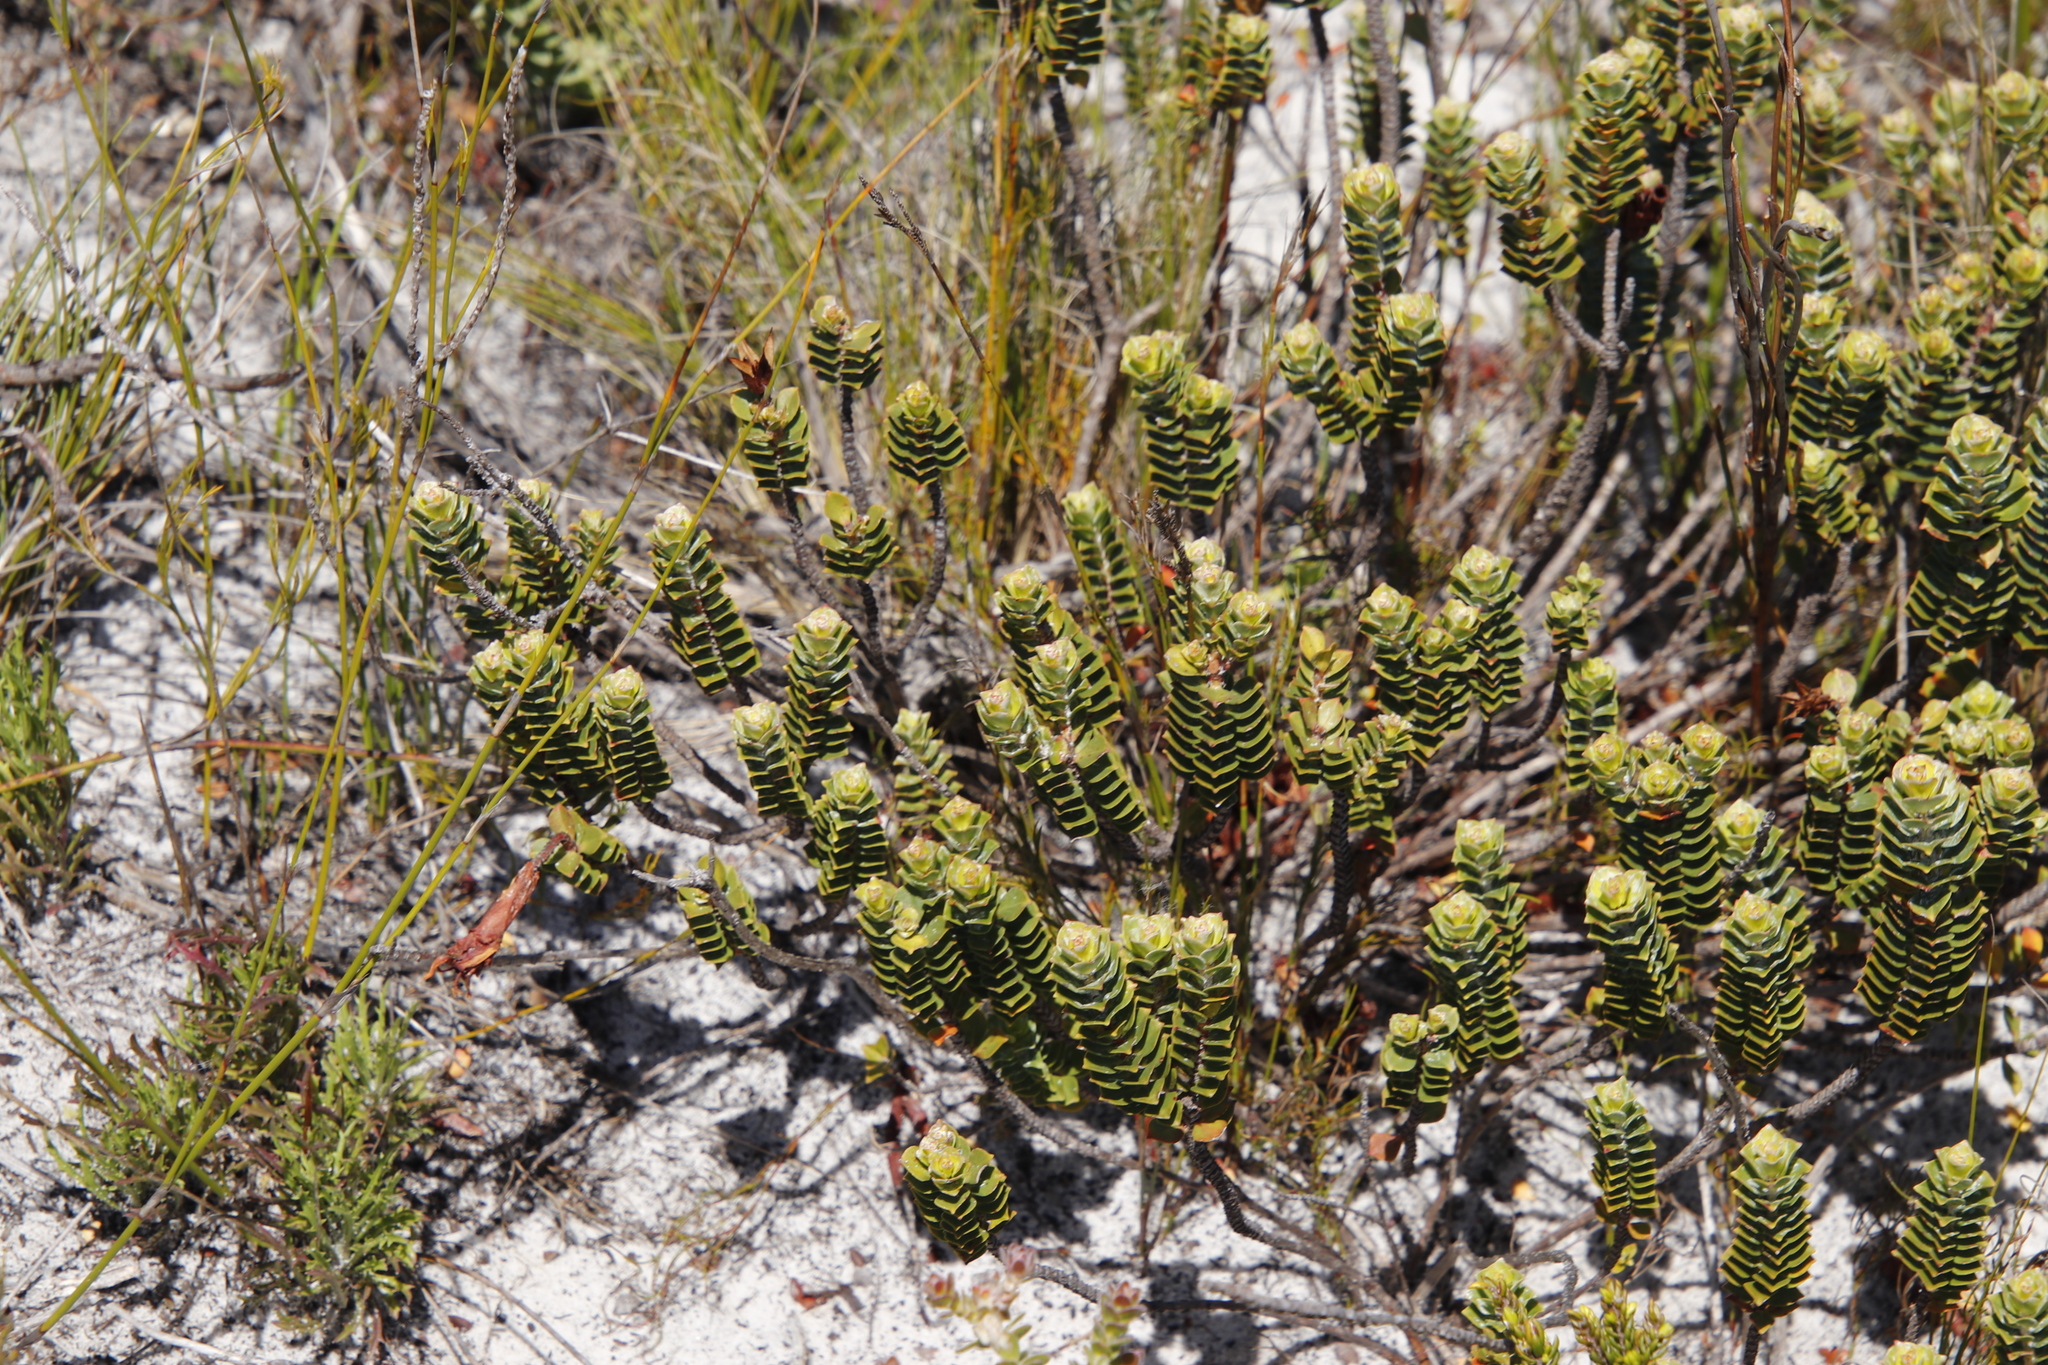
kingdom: Plantae
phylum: Tracheophyta
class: Magnoliopsida
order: Myrtales
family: Penaeaceae
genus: Saltera
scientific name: Saltera sarcocolla
